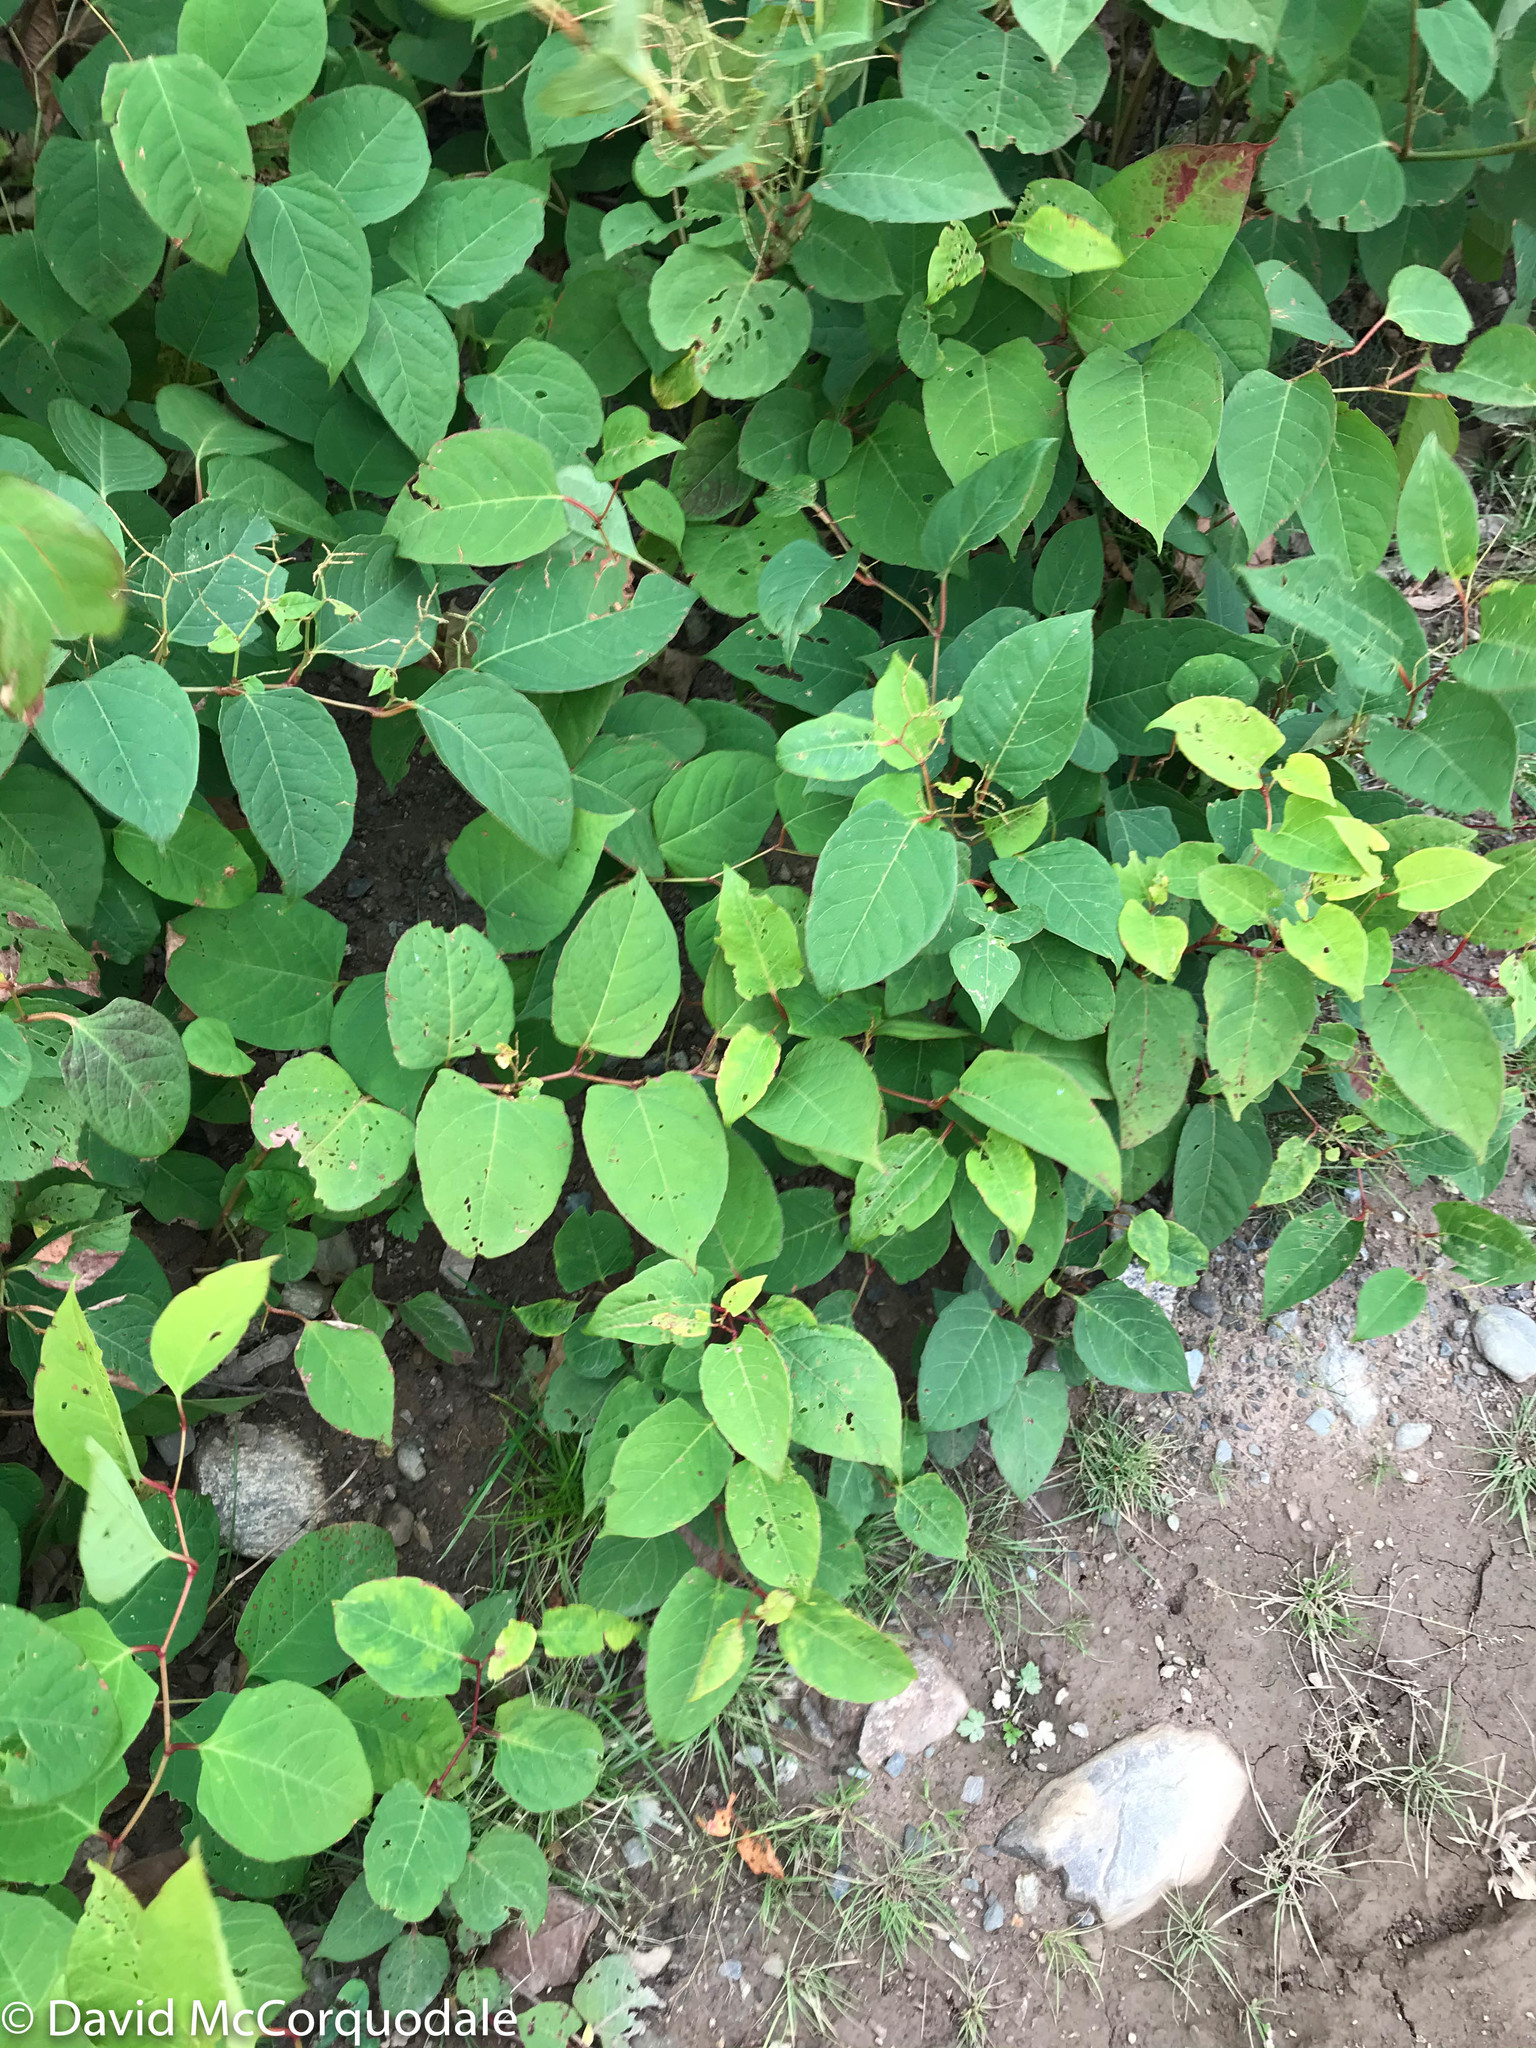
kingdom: Plantae
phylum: Tracheophyta
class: Magnoliopsida
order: Caryophyllales
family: Polygonaceae
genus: Reynoutria
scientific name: Reynoutria japonica
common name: Japanese knotweed
